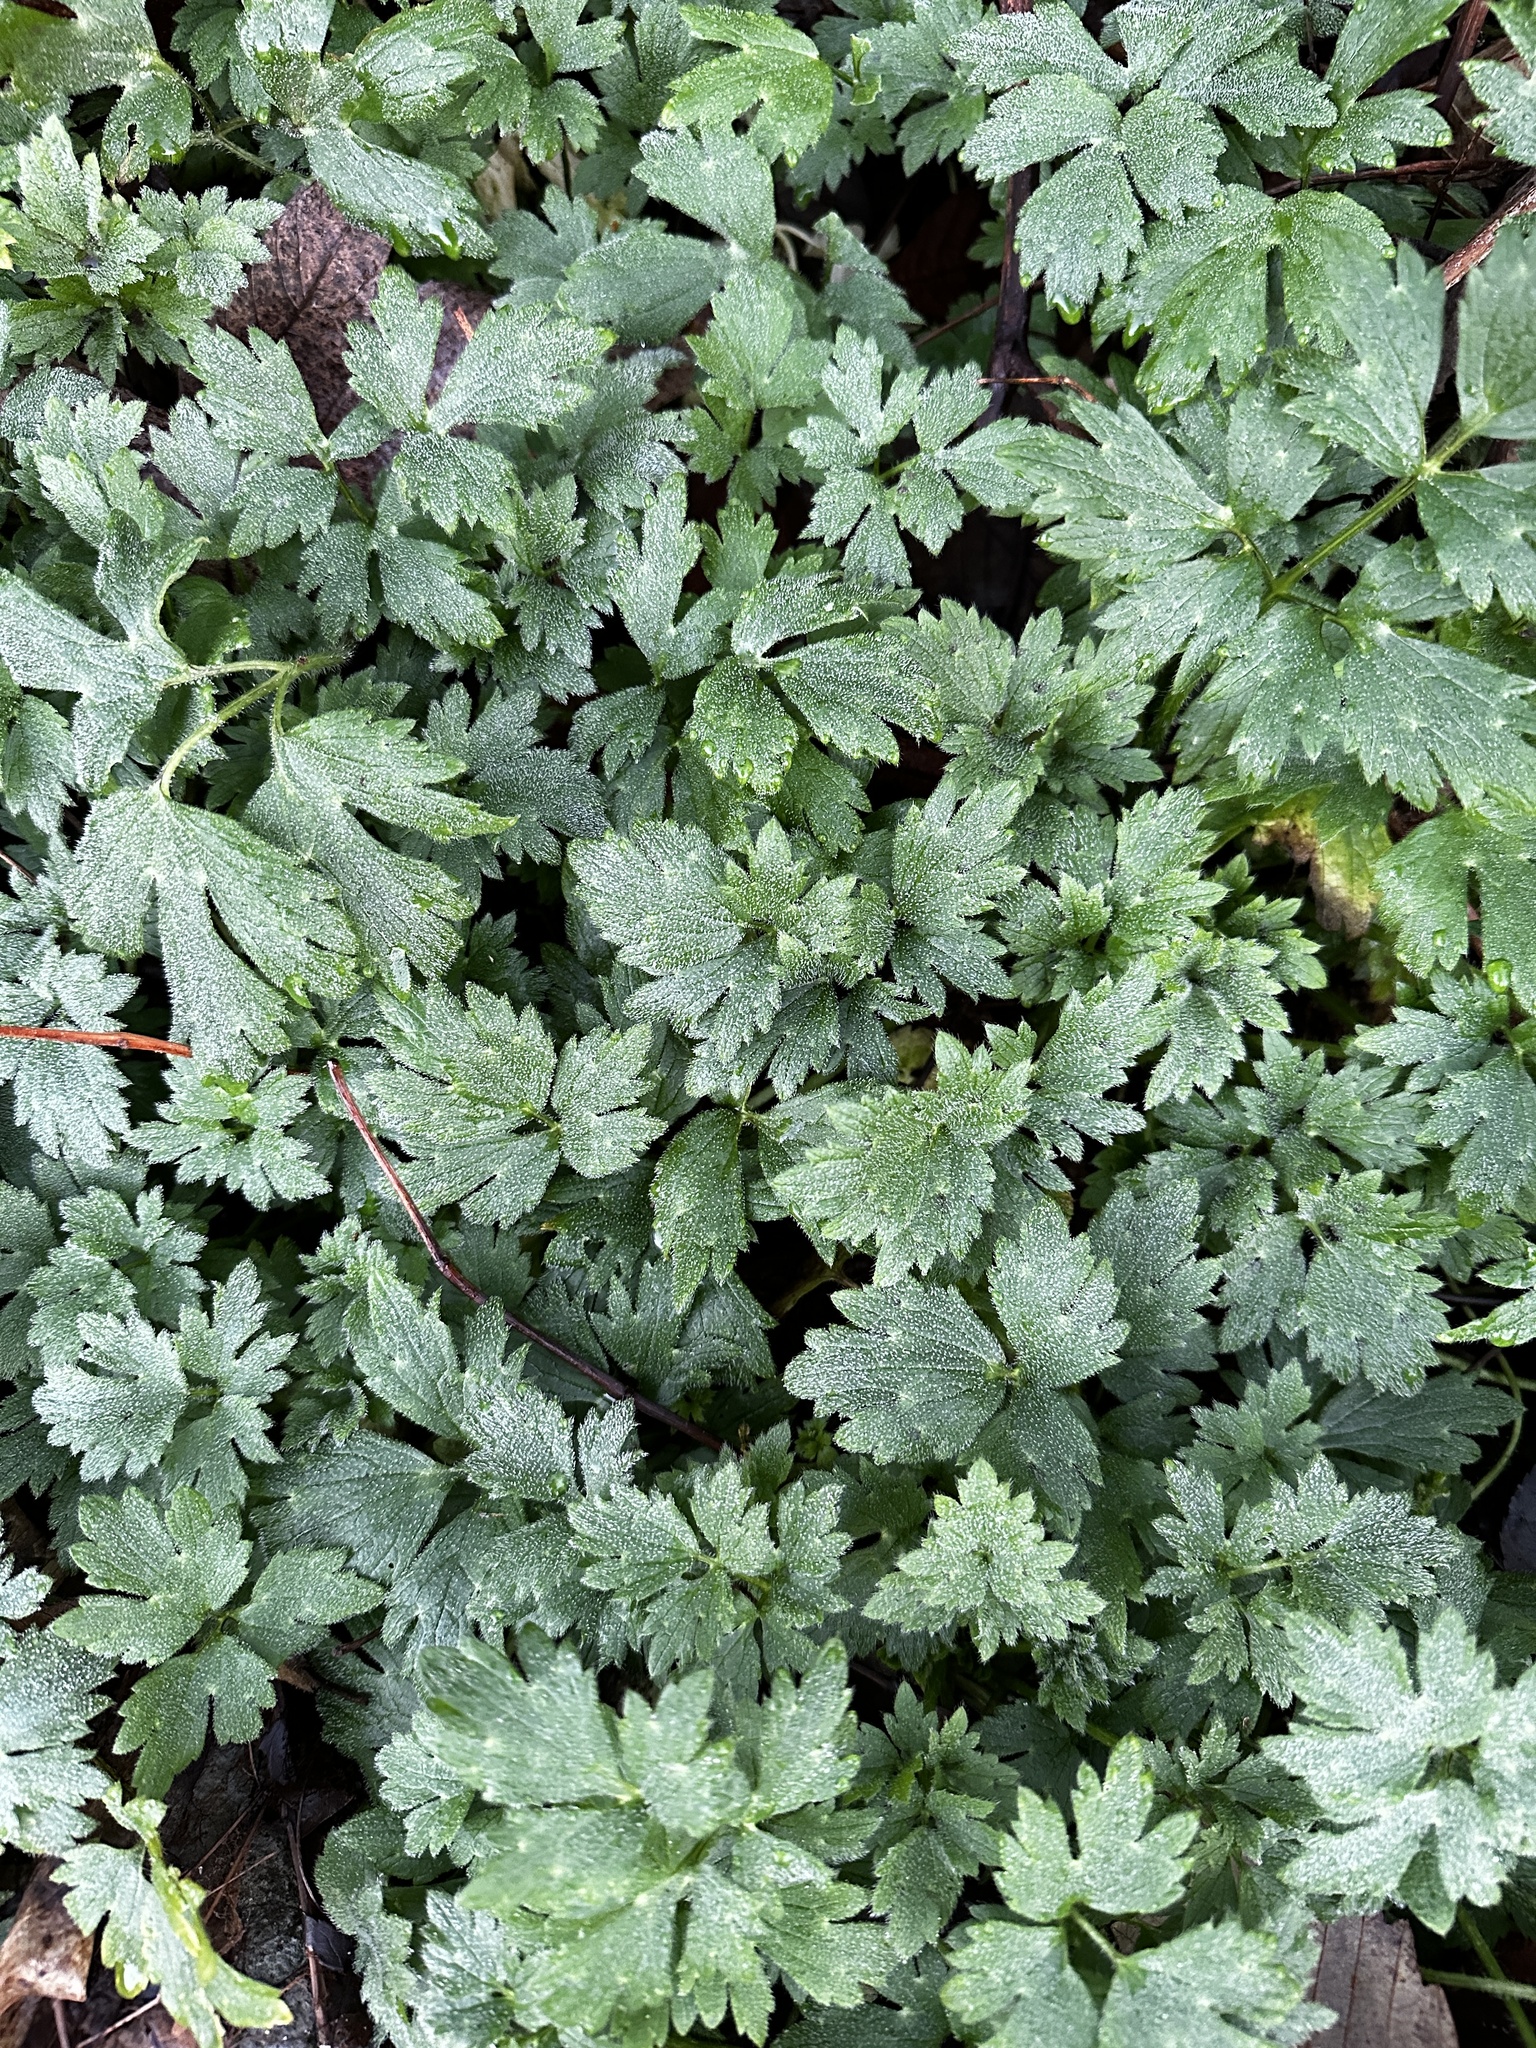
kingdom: Plantae
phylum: Tracheophyta
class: Magnoliopsida
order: Ranunculales
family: Ranunculaceae
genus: Ranunculus
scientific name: Ranunculus repens
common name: Creeping buttercup
